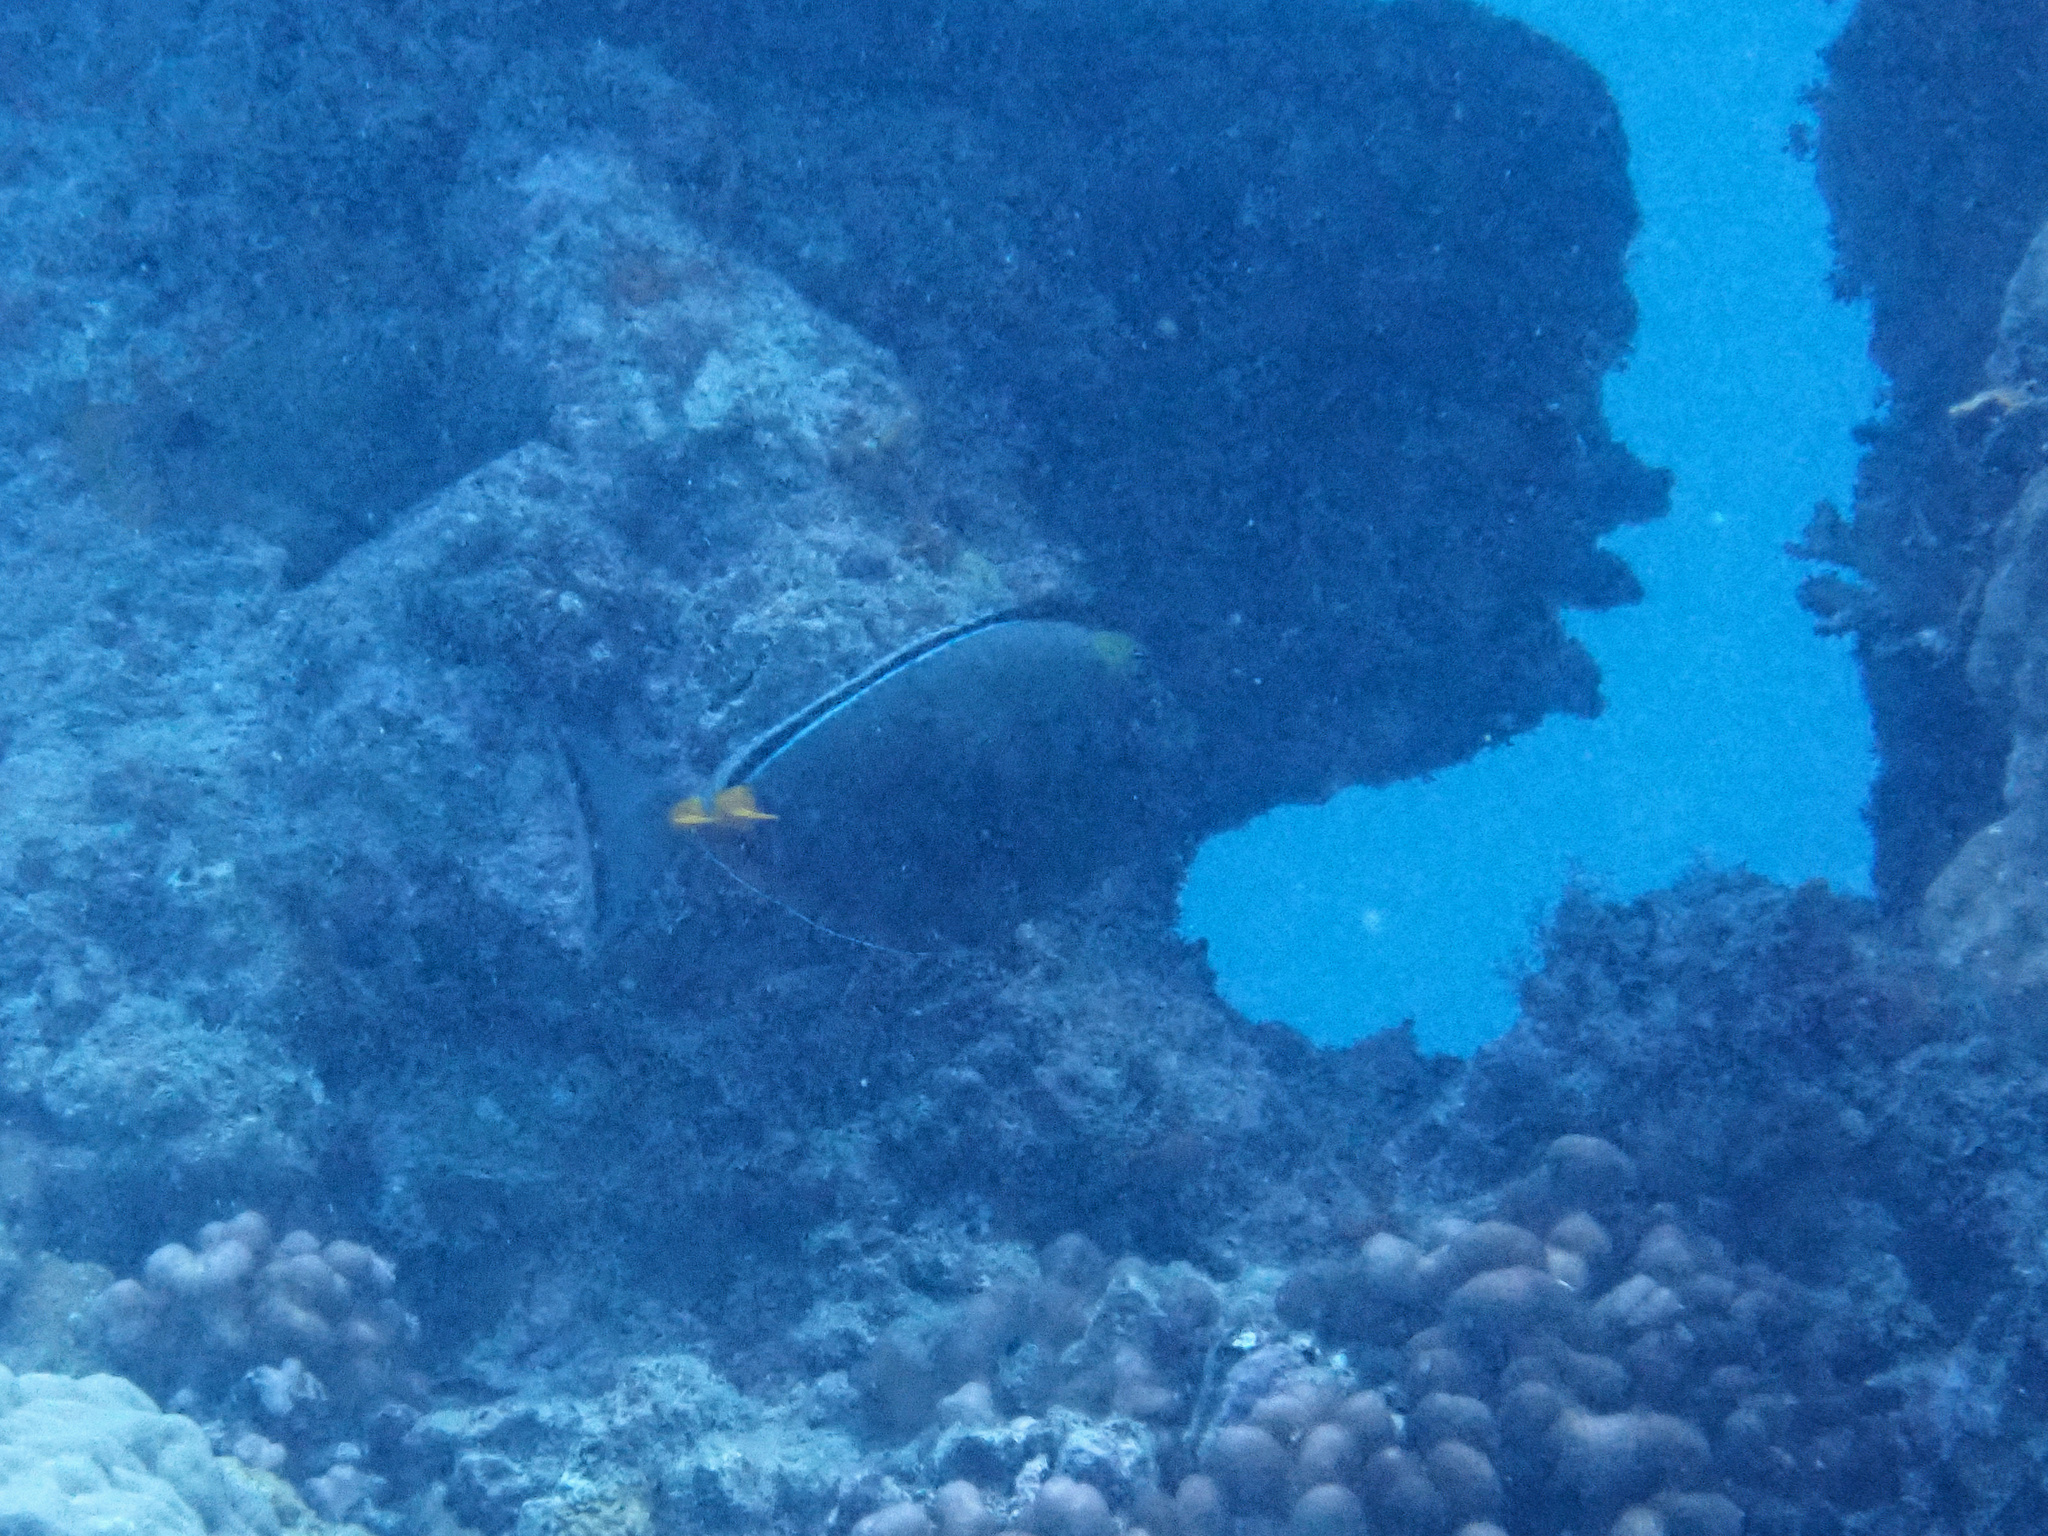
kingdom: Animalia
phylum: Chordata
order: Perciformes
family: Acanthuridae
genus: Naso
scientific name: Naso lituratus
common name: Orangespine unicornfish
